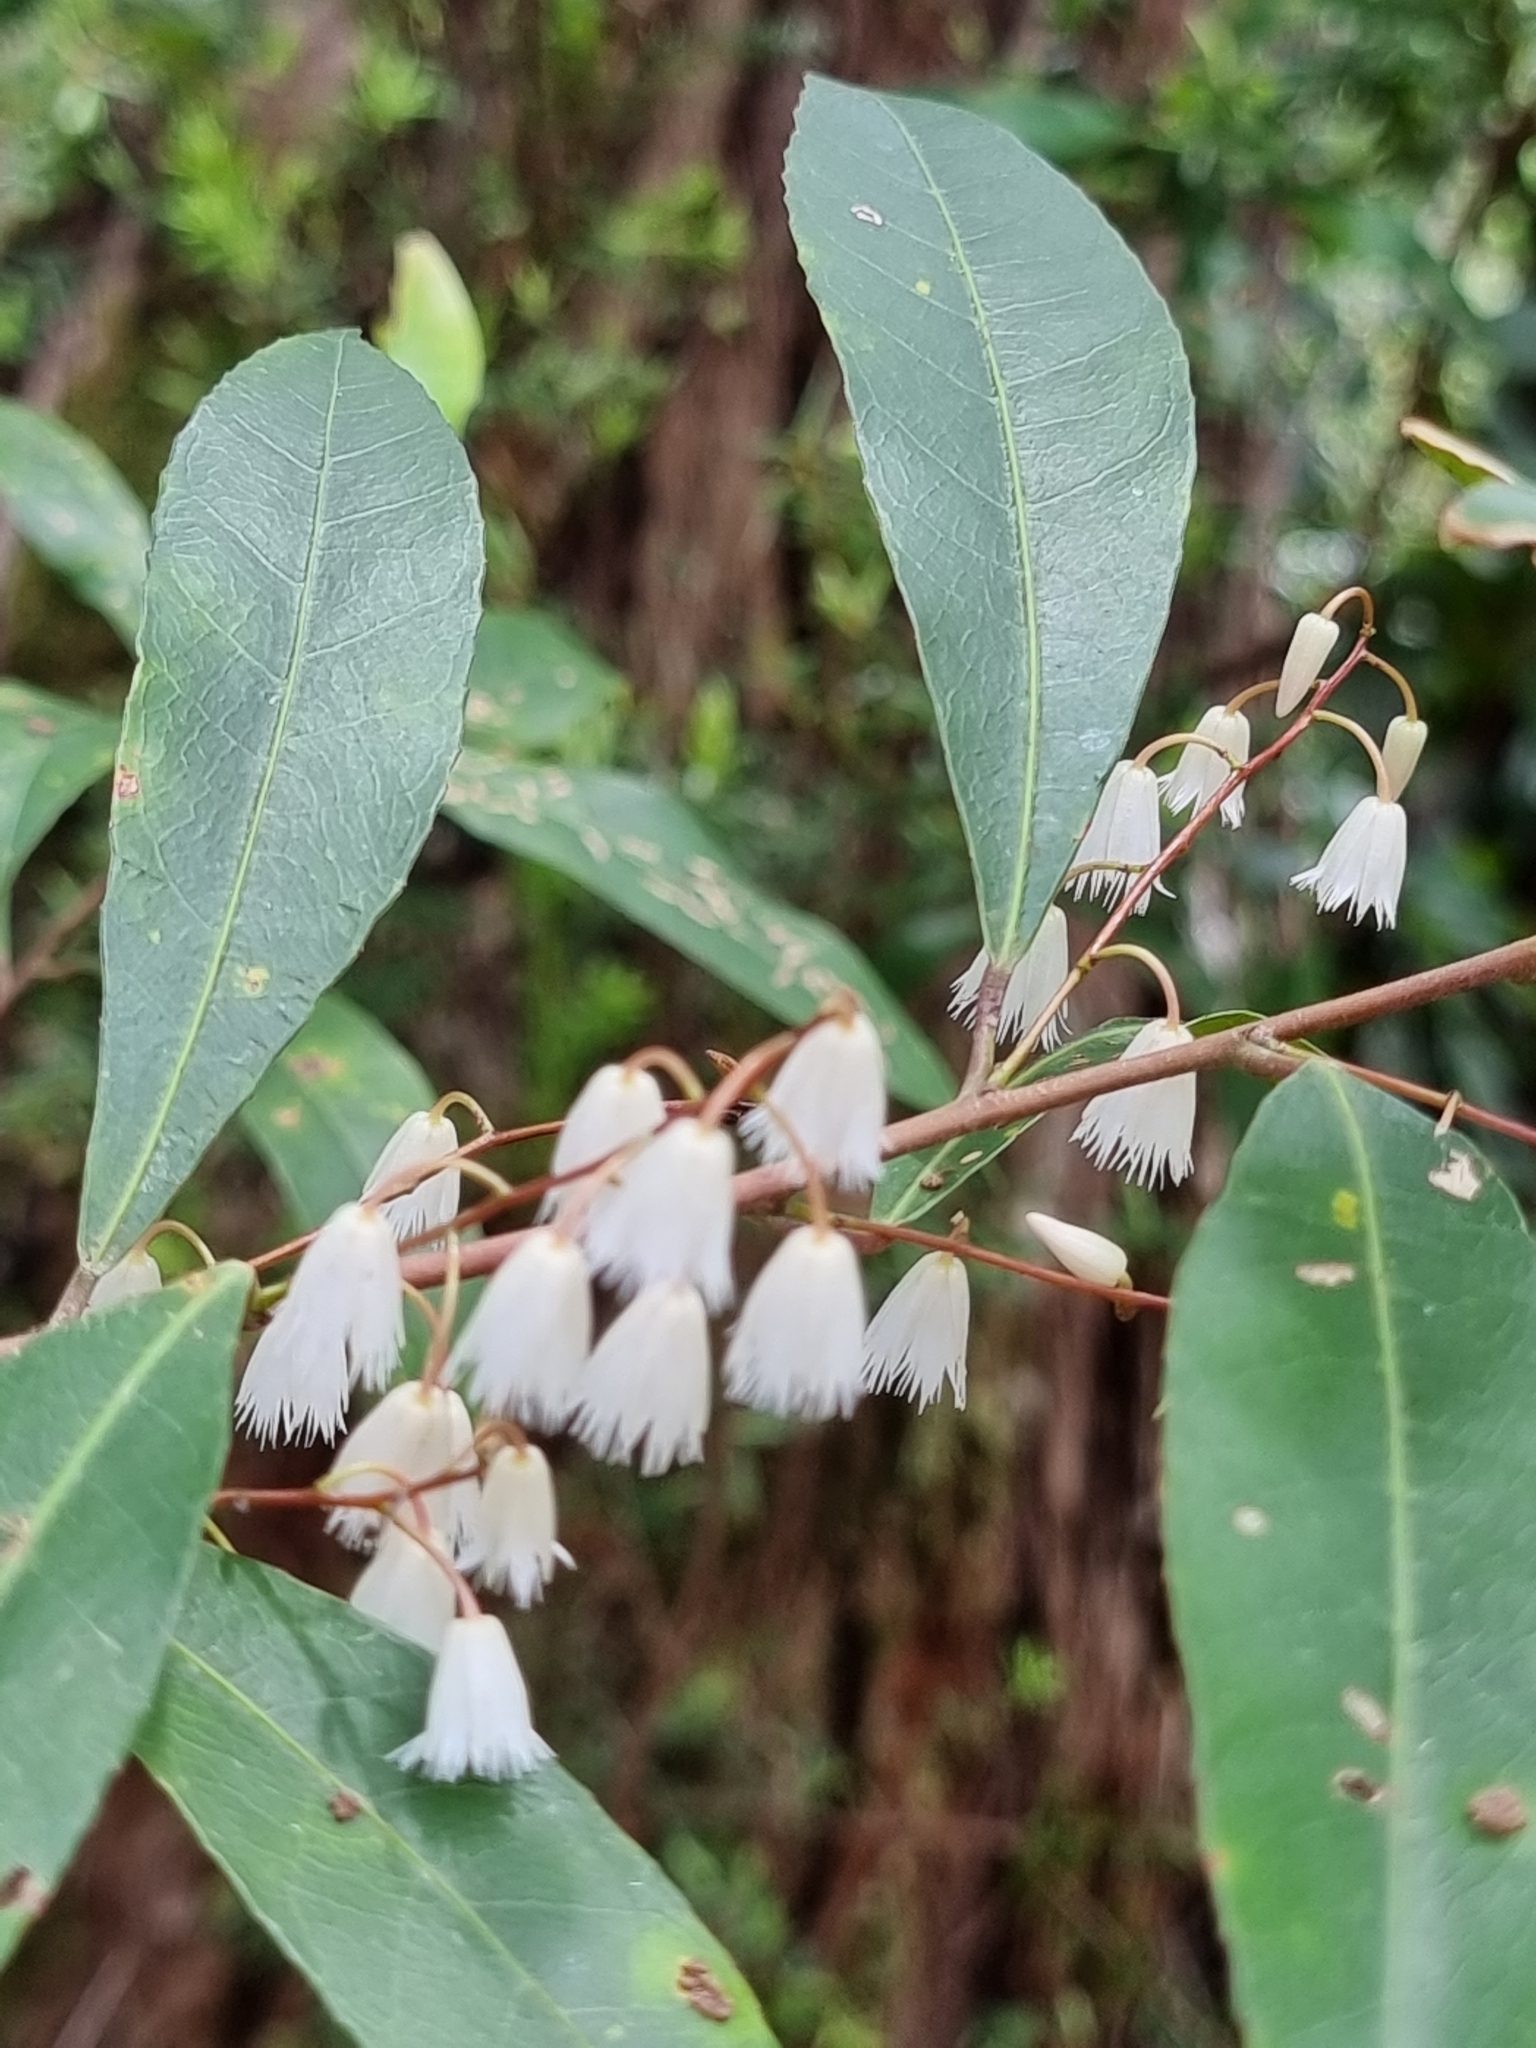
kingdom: Plantae
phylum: Tracheophyta
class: Magnoliopsida
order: Oxalidales
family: Elaeocarpaceae
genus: Elaeocarpus
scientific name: Elaeocarpus reticulatus
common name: Ash quandong
